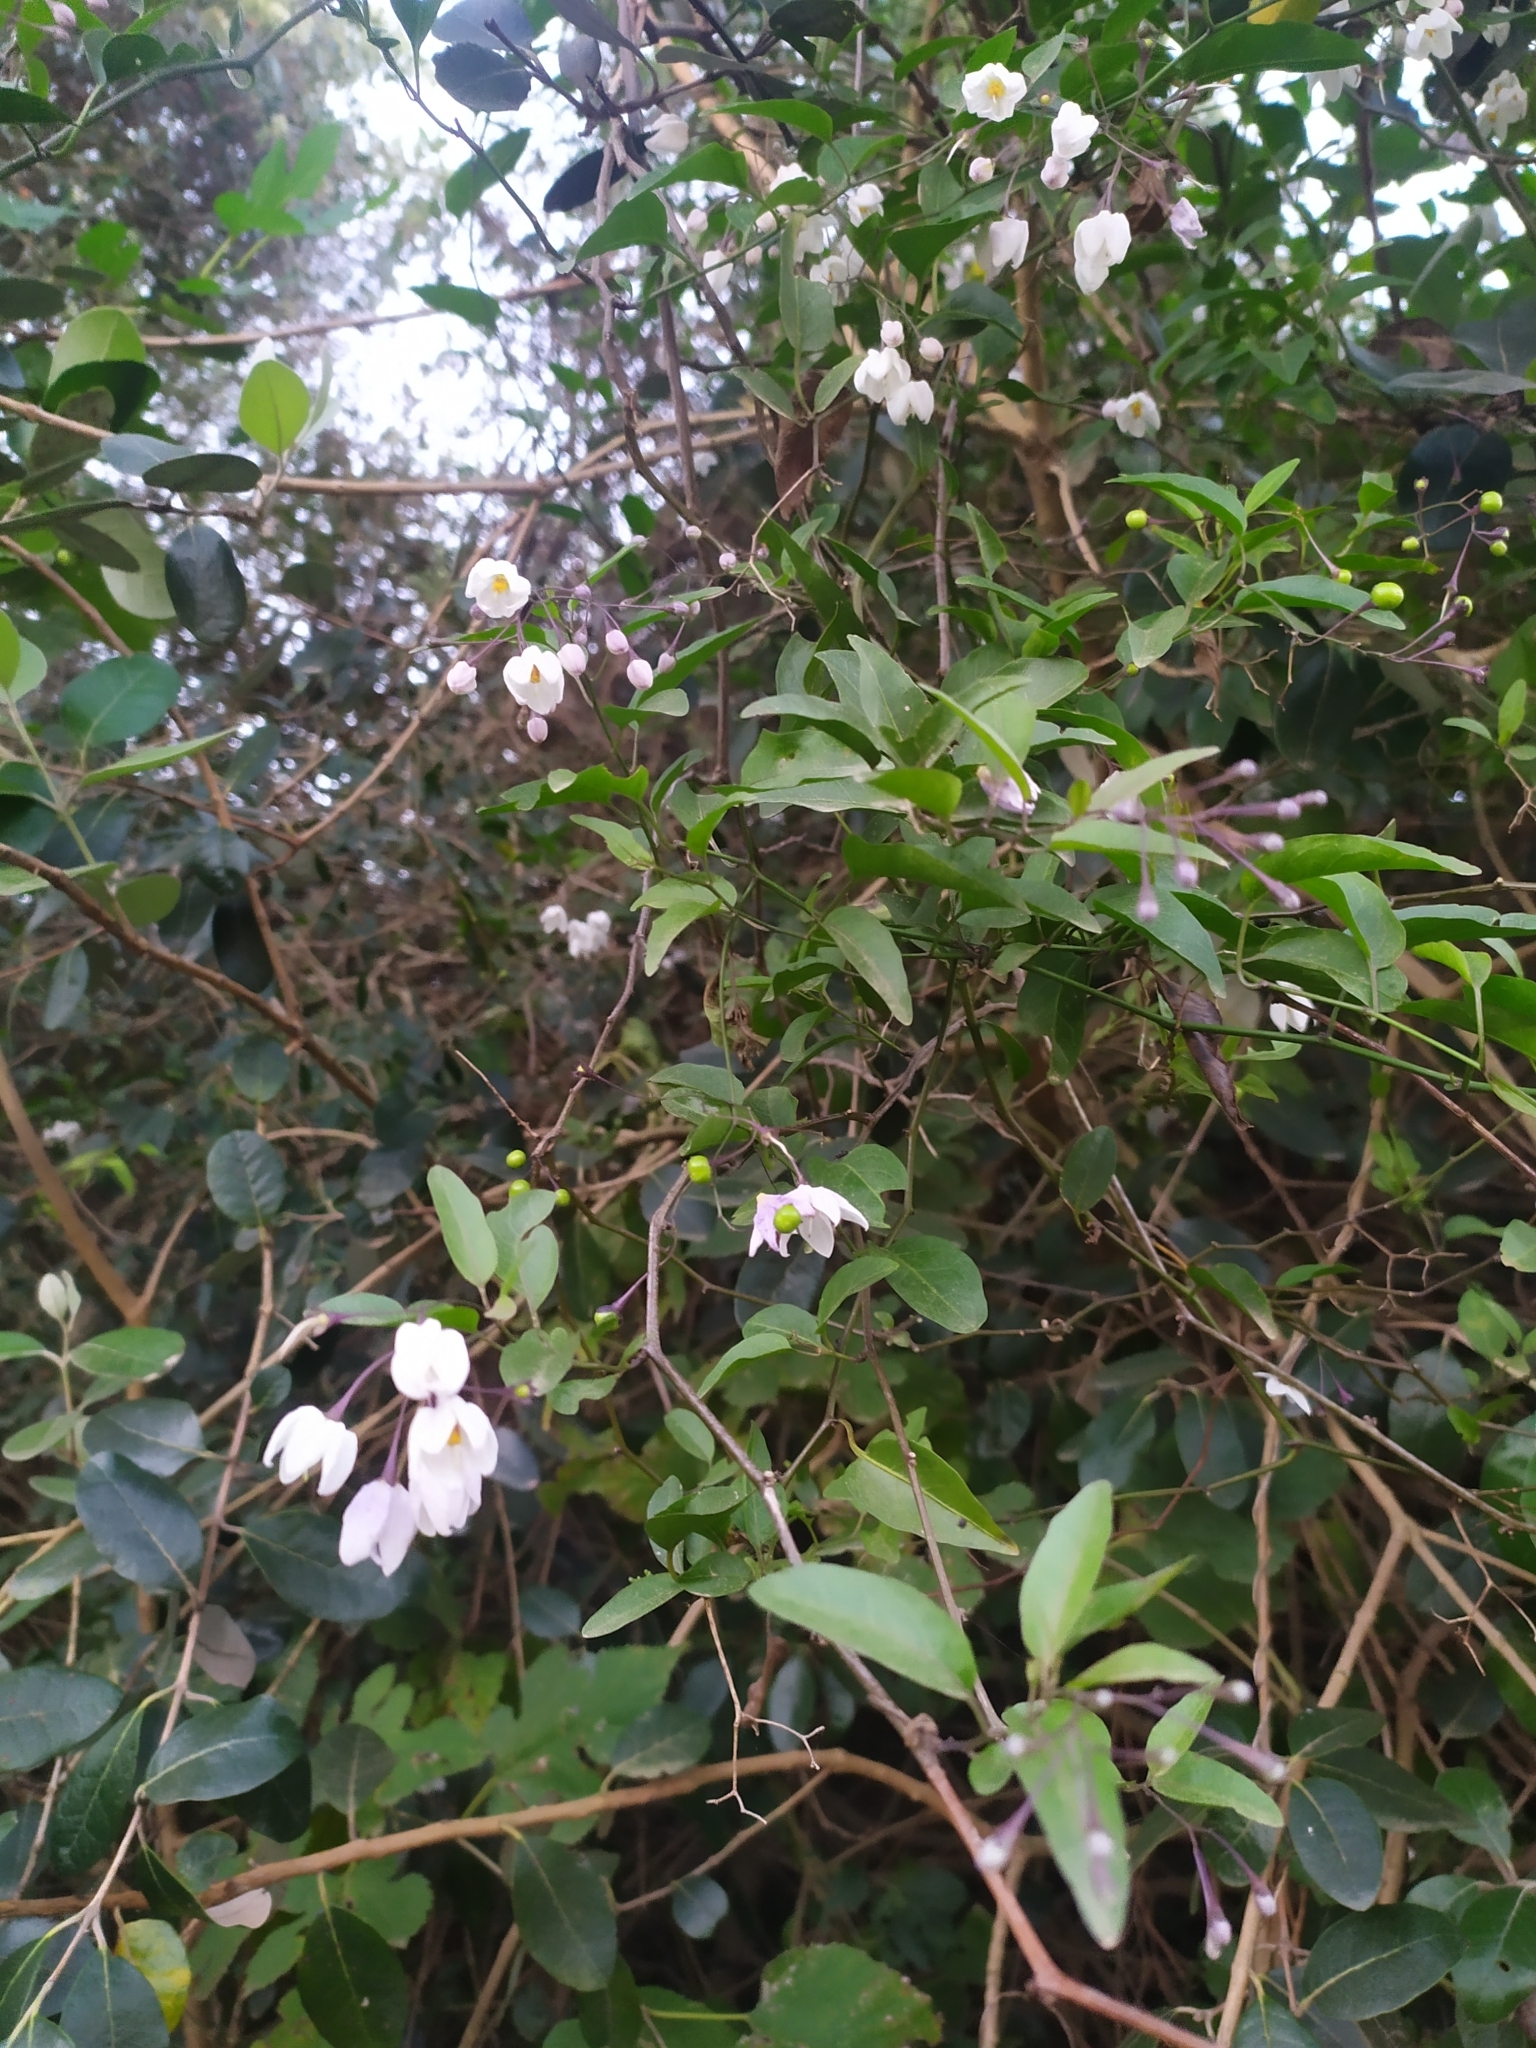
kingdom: Plantae
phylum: Tracheophyta
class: Magnoliopsida
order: Solanales
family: Solanaceae
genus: Solanum
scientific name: Solanum laxum
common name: Nightshade
